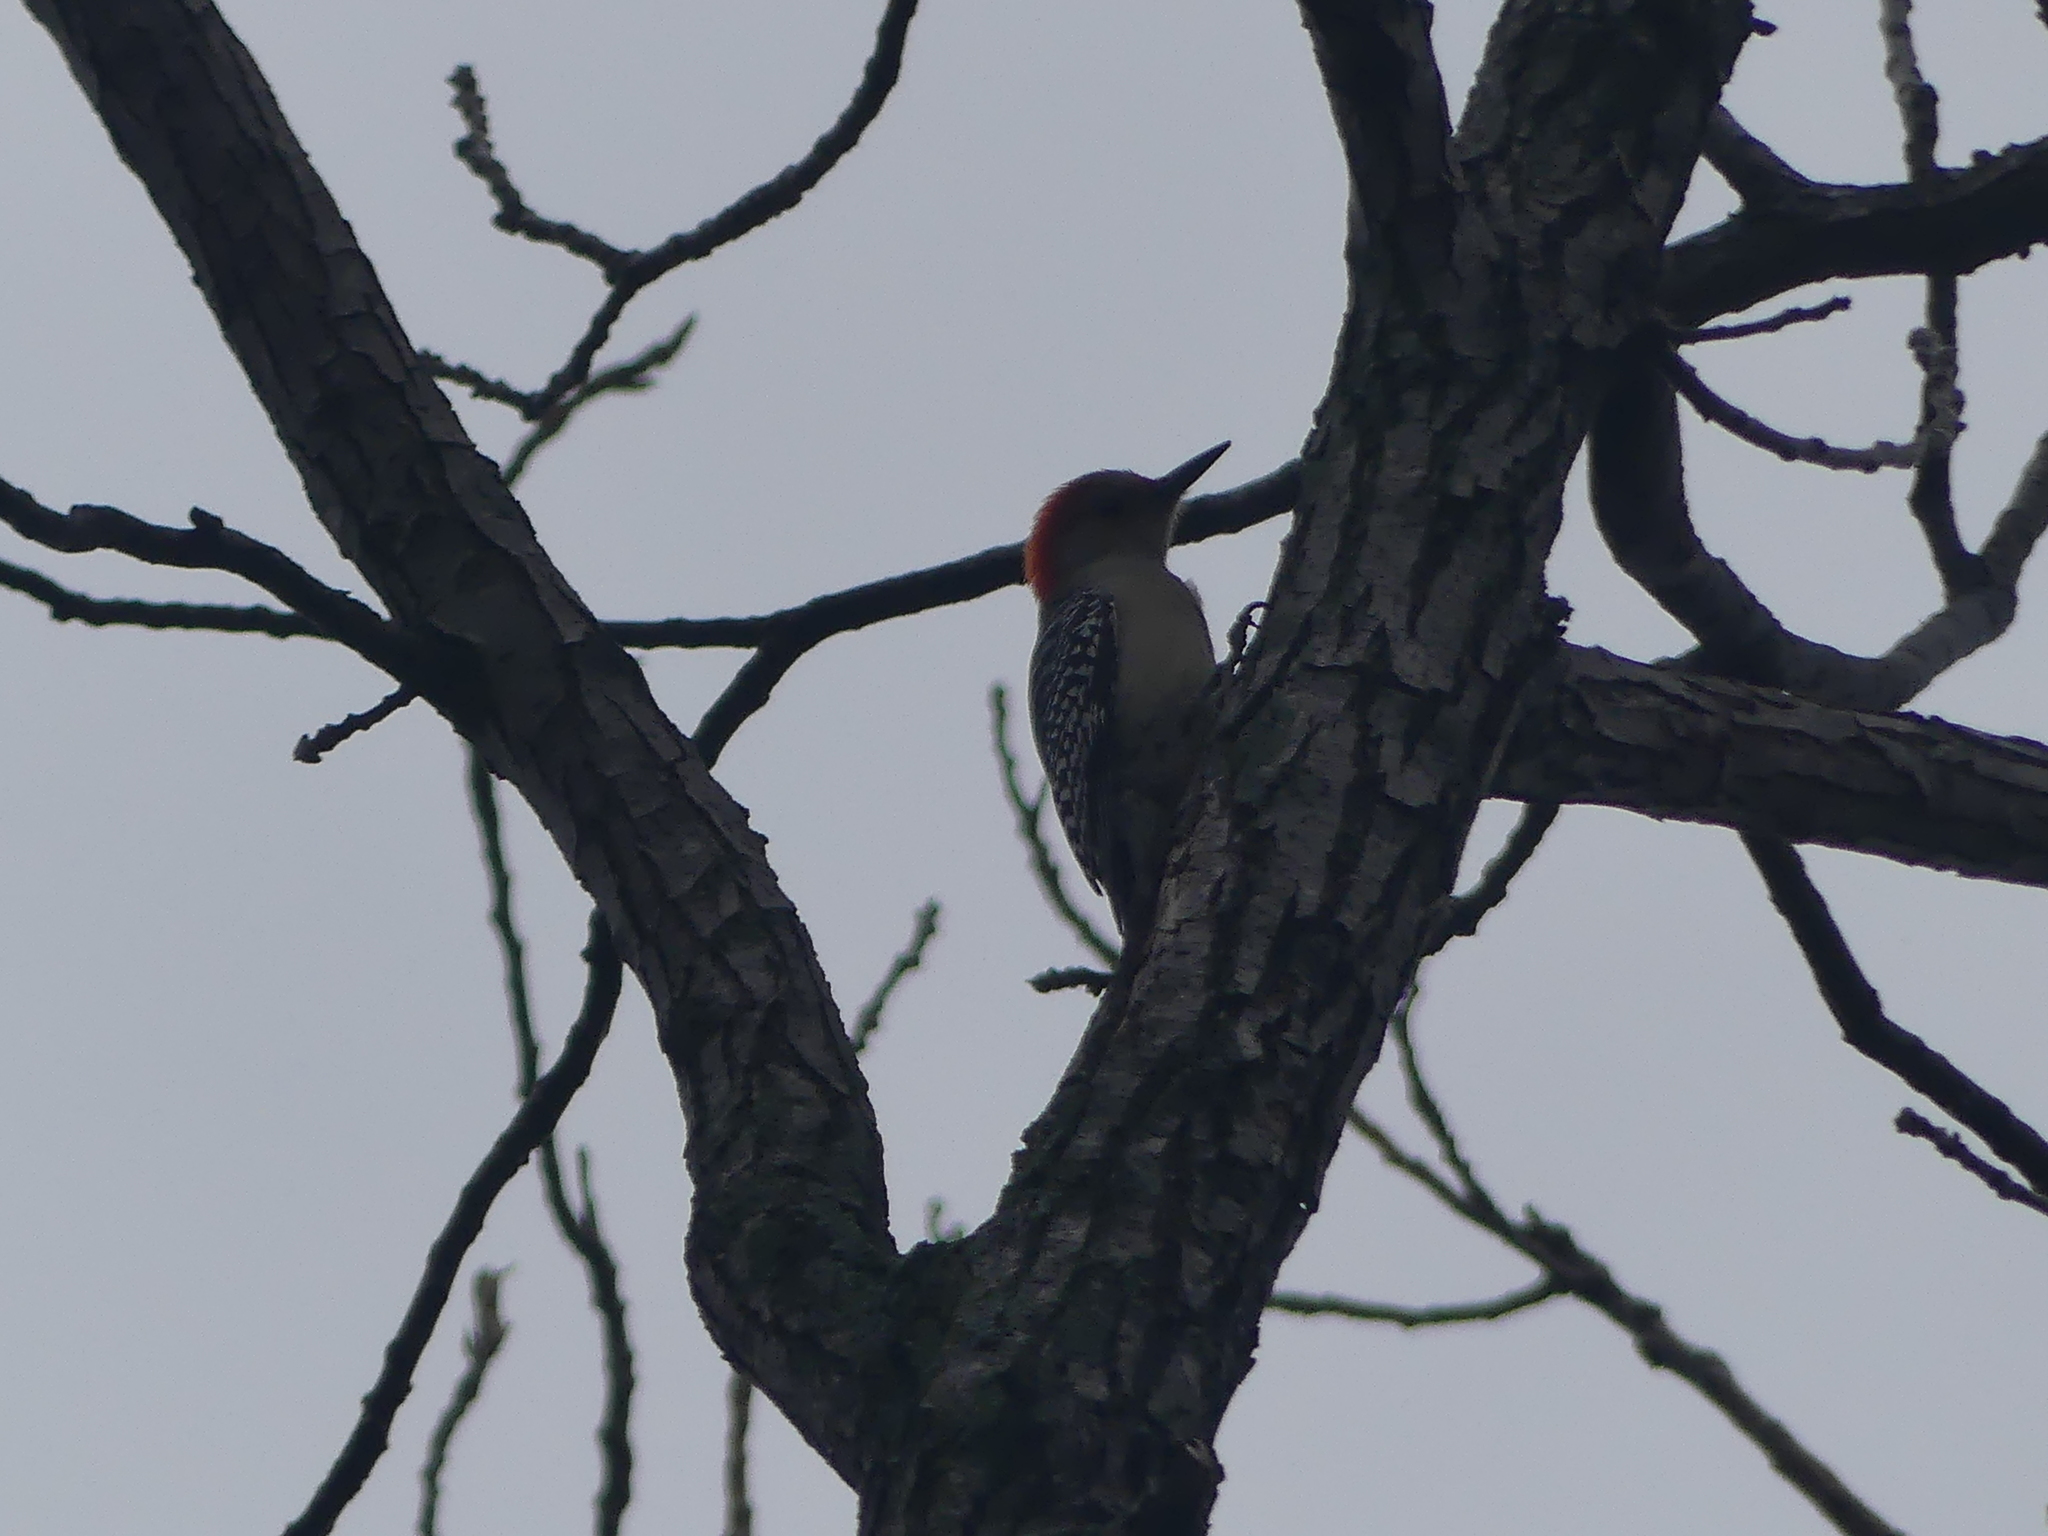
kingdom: Animalia
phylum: Chordata
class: Aves
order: Piciformes
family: Picidae
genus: Melanerpes
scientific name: Melanerpes carolinus
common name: Red-bellied woodpecker
